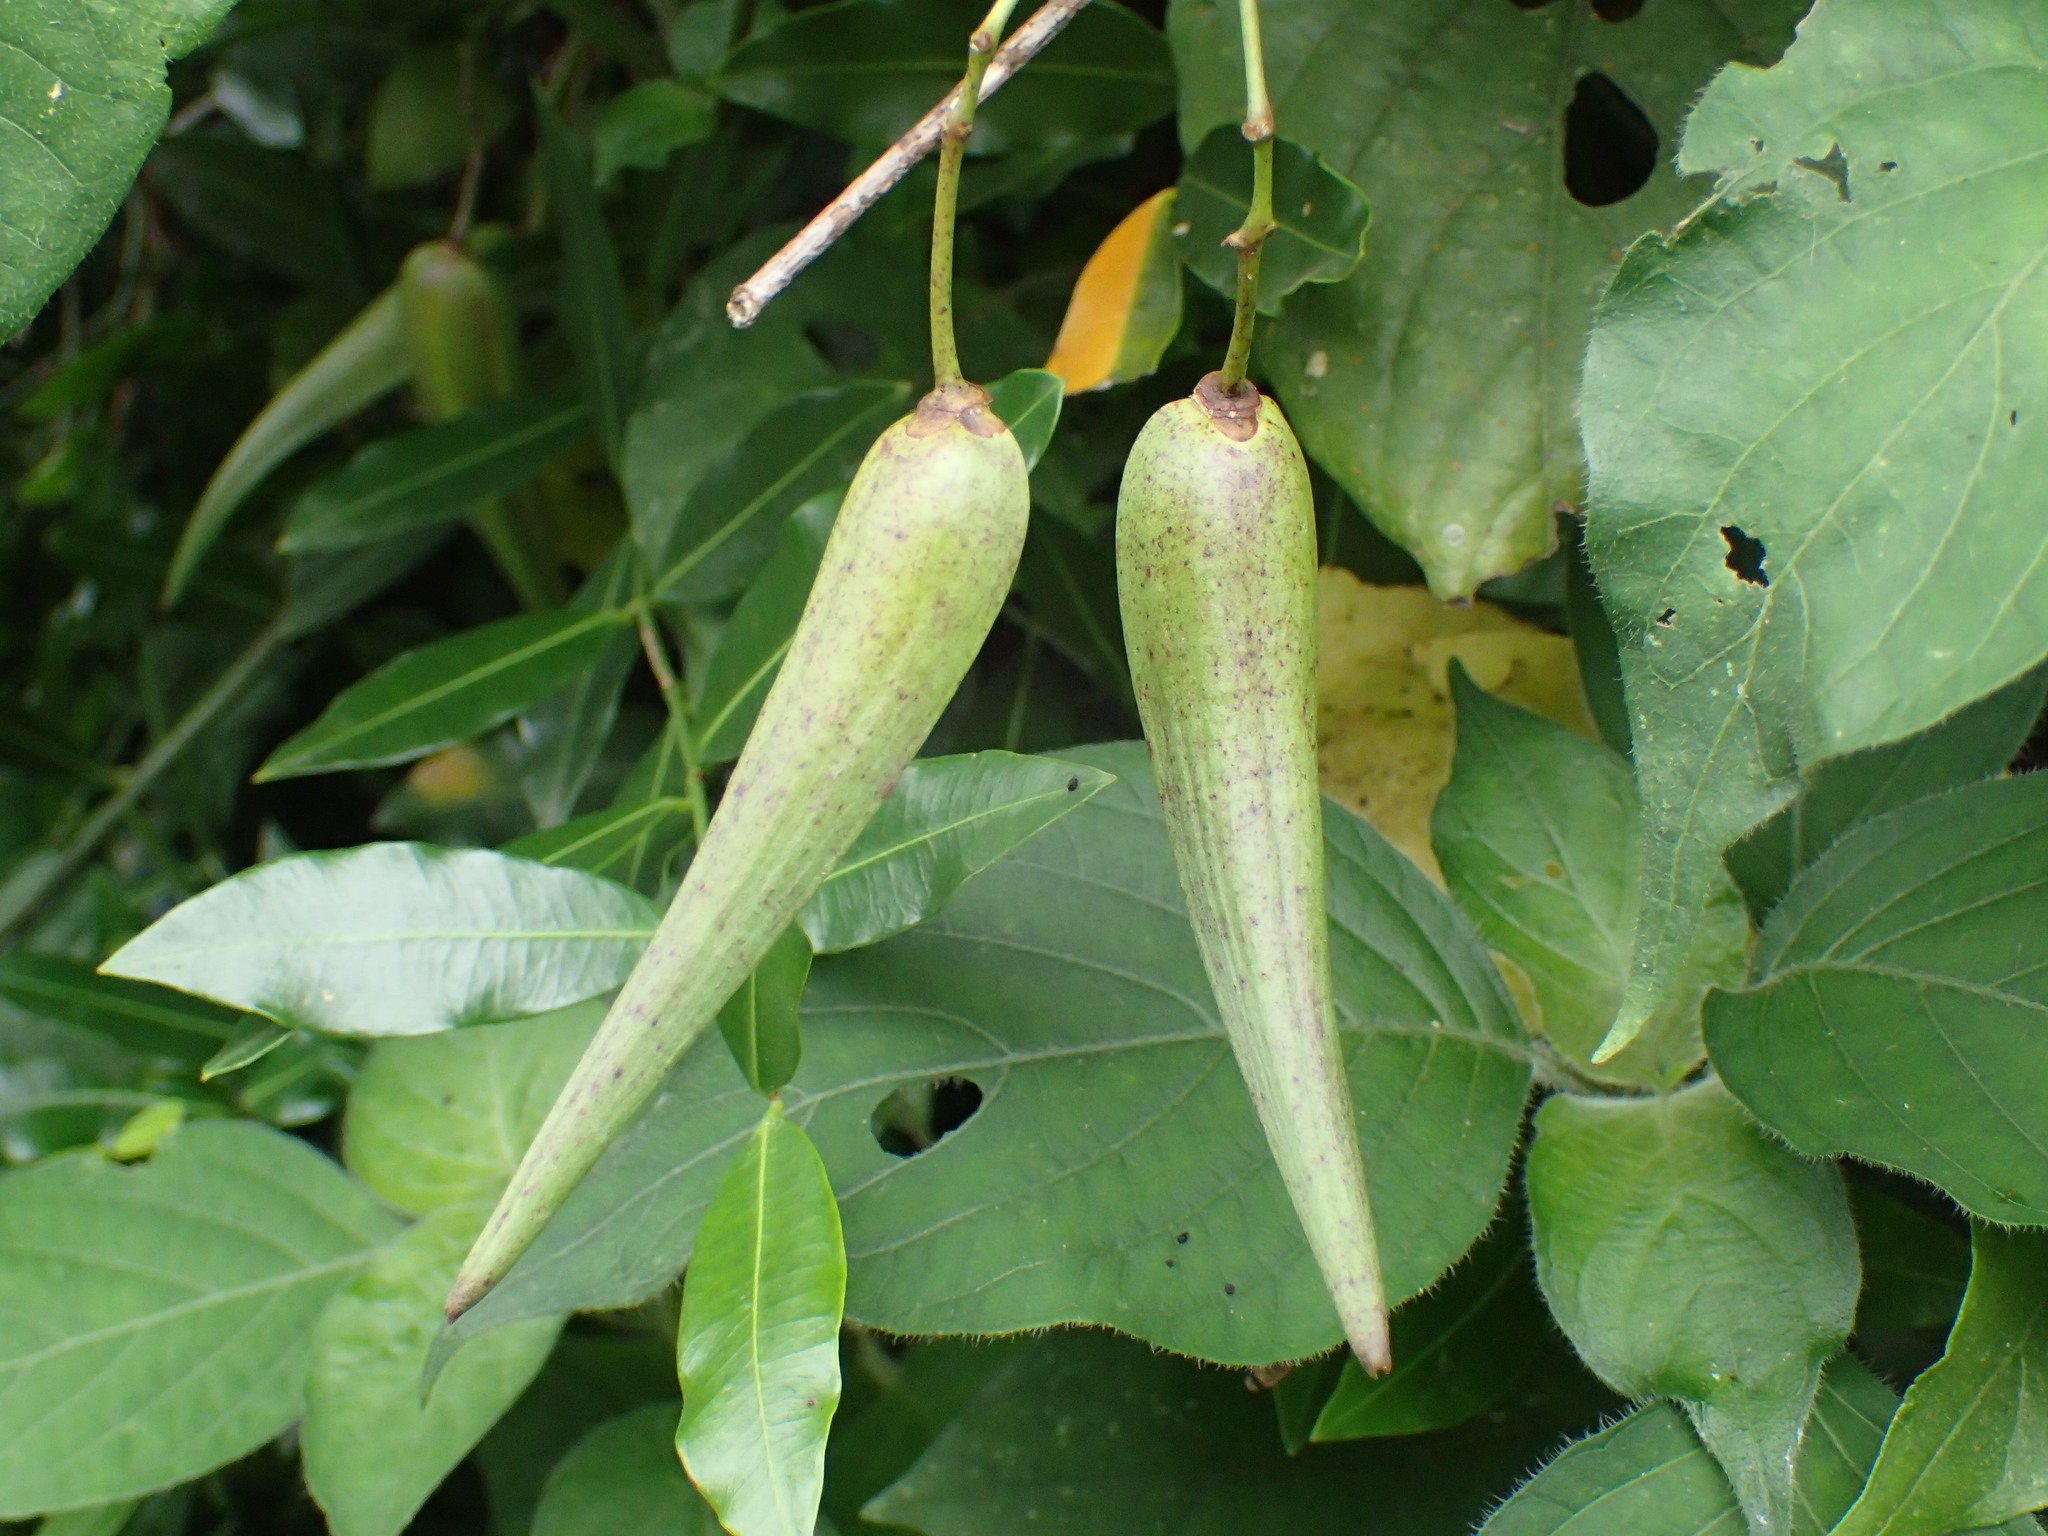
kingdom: Plantae
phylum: Tracheophyta
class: Magnoliopsida
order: Gentianales
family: Apocynaceae
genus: Secamone
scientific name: Secamone gerrardii
